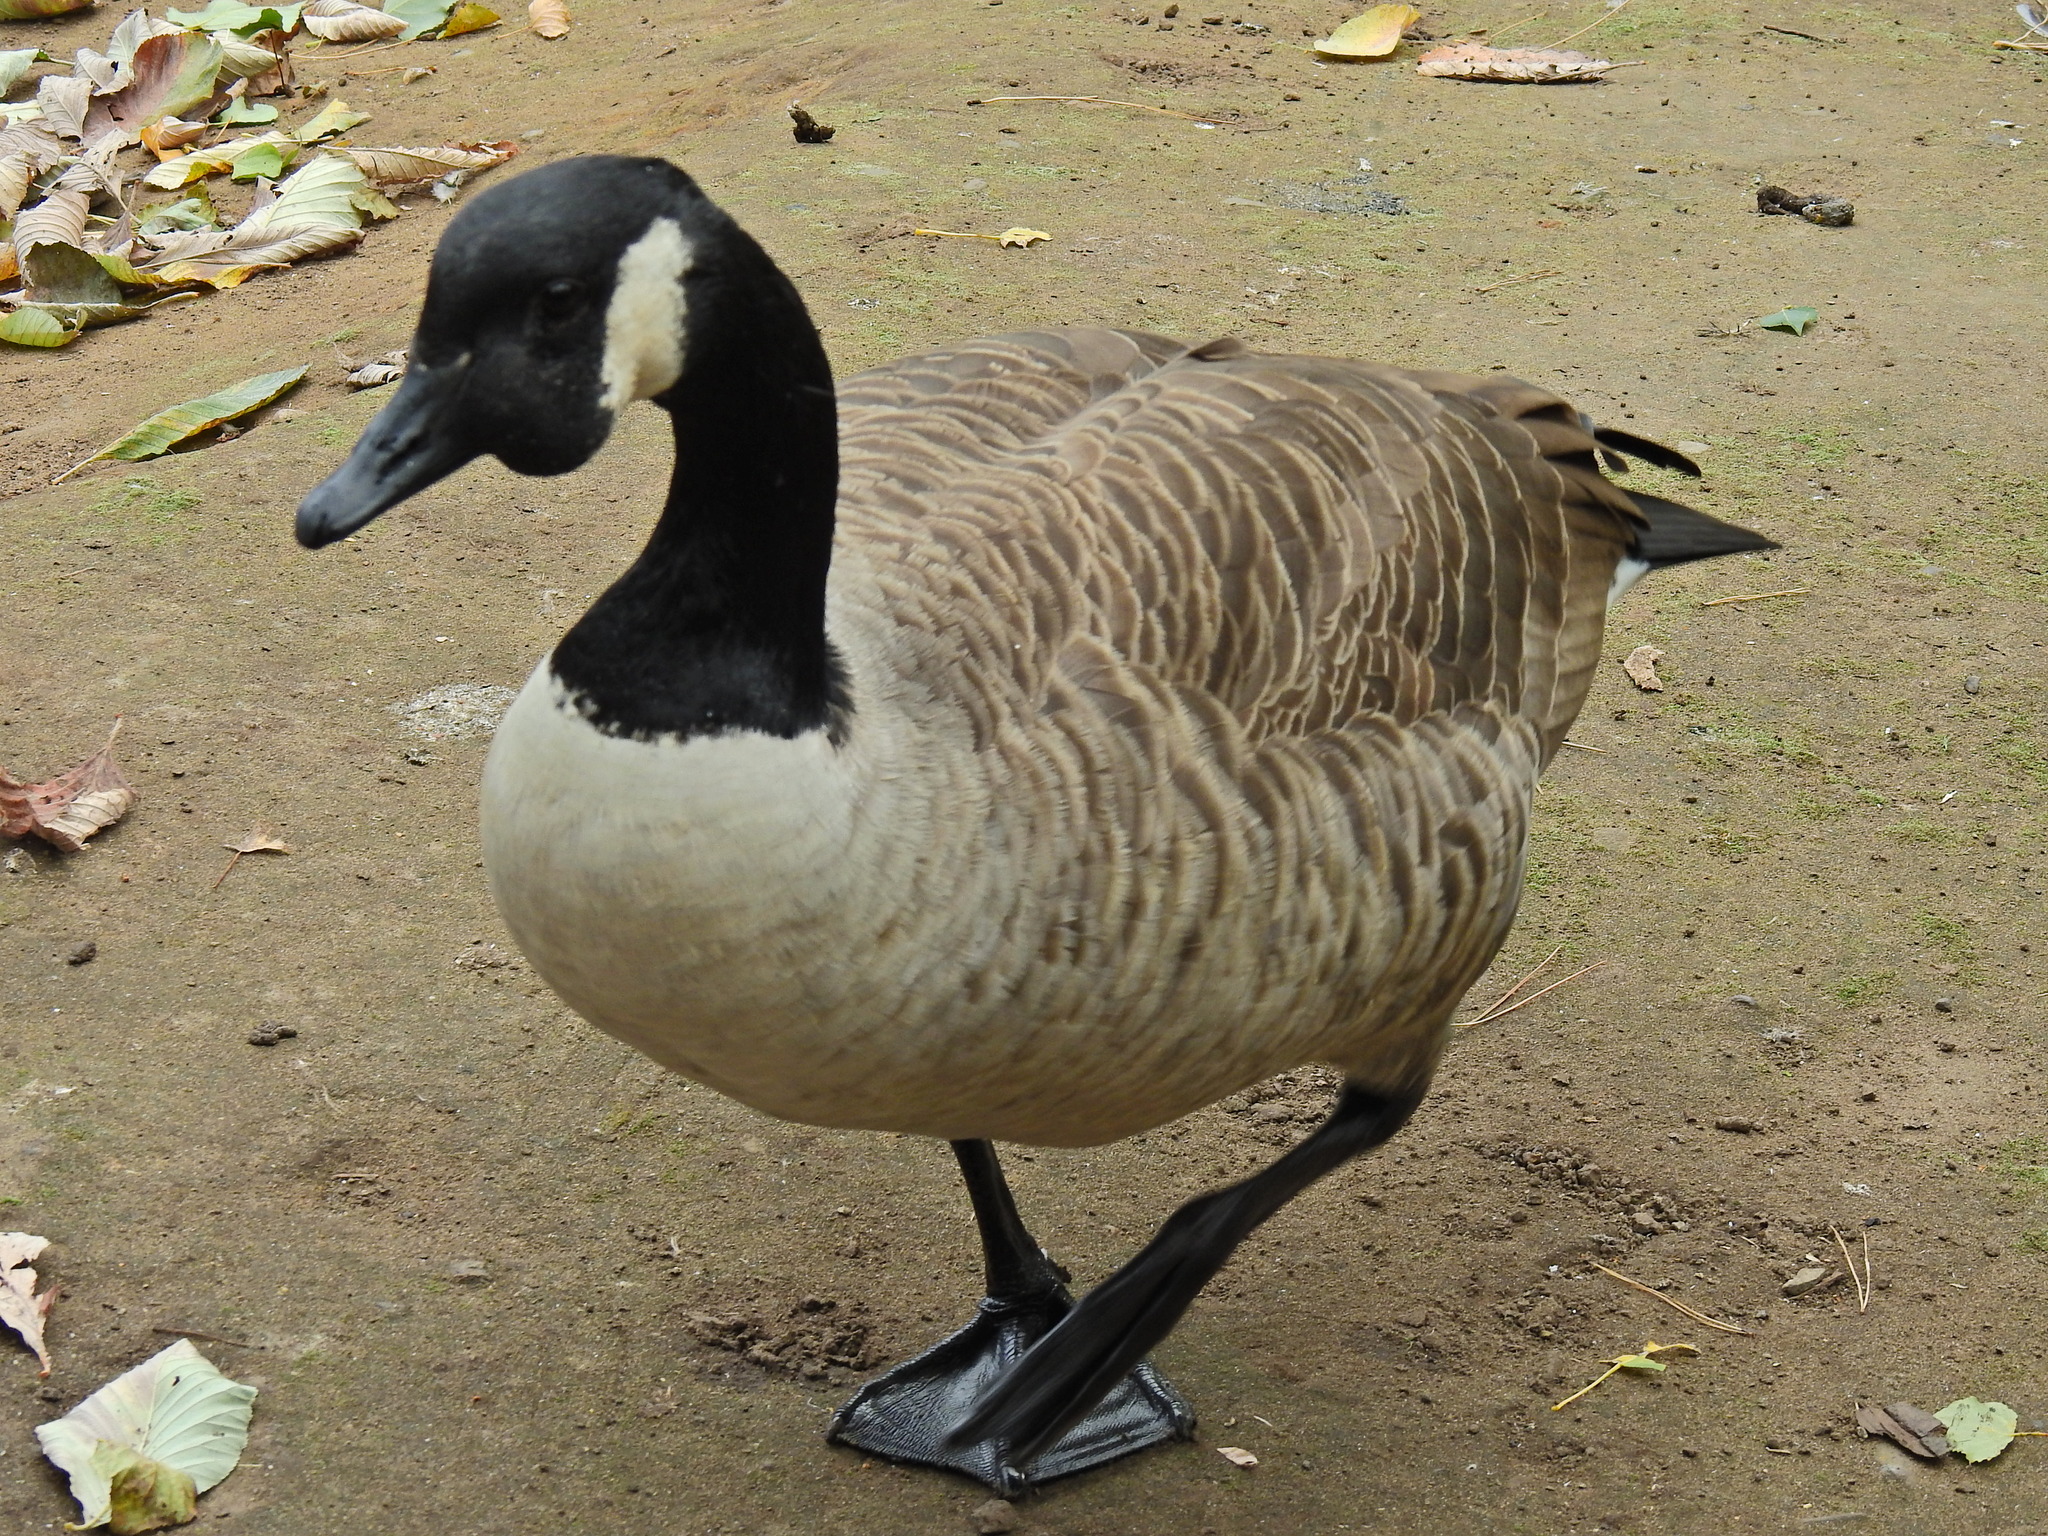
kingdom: Animalia
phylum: Chordata
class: Aves
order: Anseriformes
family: Anatidae
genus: Branta
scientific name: Branta canadensis
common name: Canada goose
